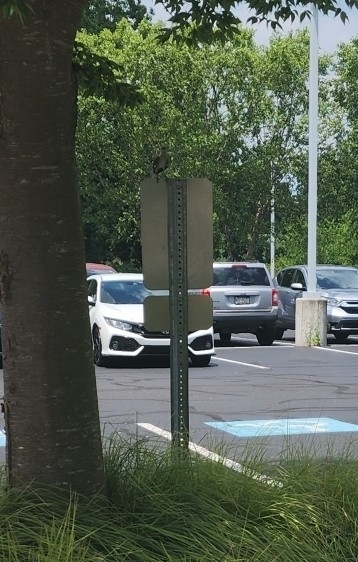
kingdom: Animalia
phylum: Chordata
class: Aves
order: Passeriformes
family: Mimidae
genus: Mimus
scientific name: Mimus polyglottos
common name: Northern mockingbird
